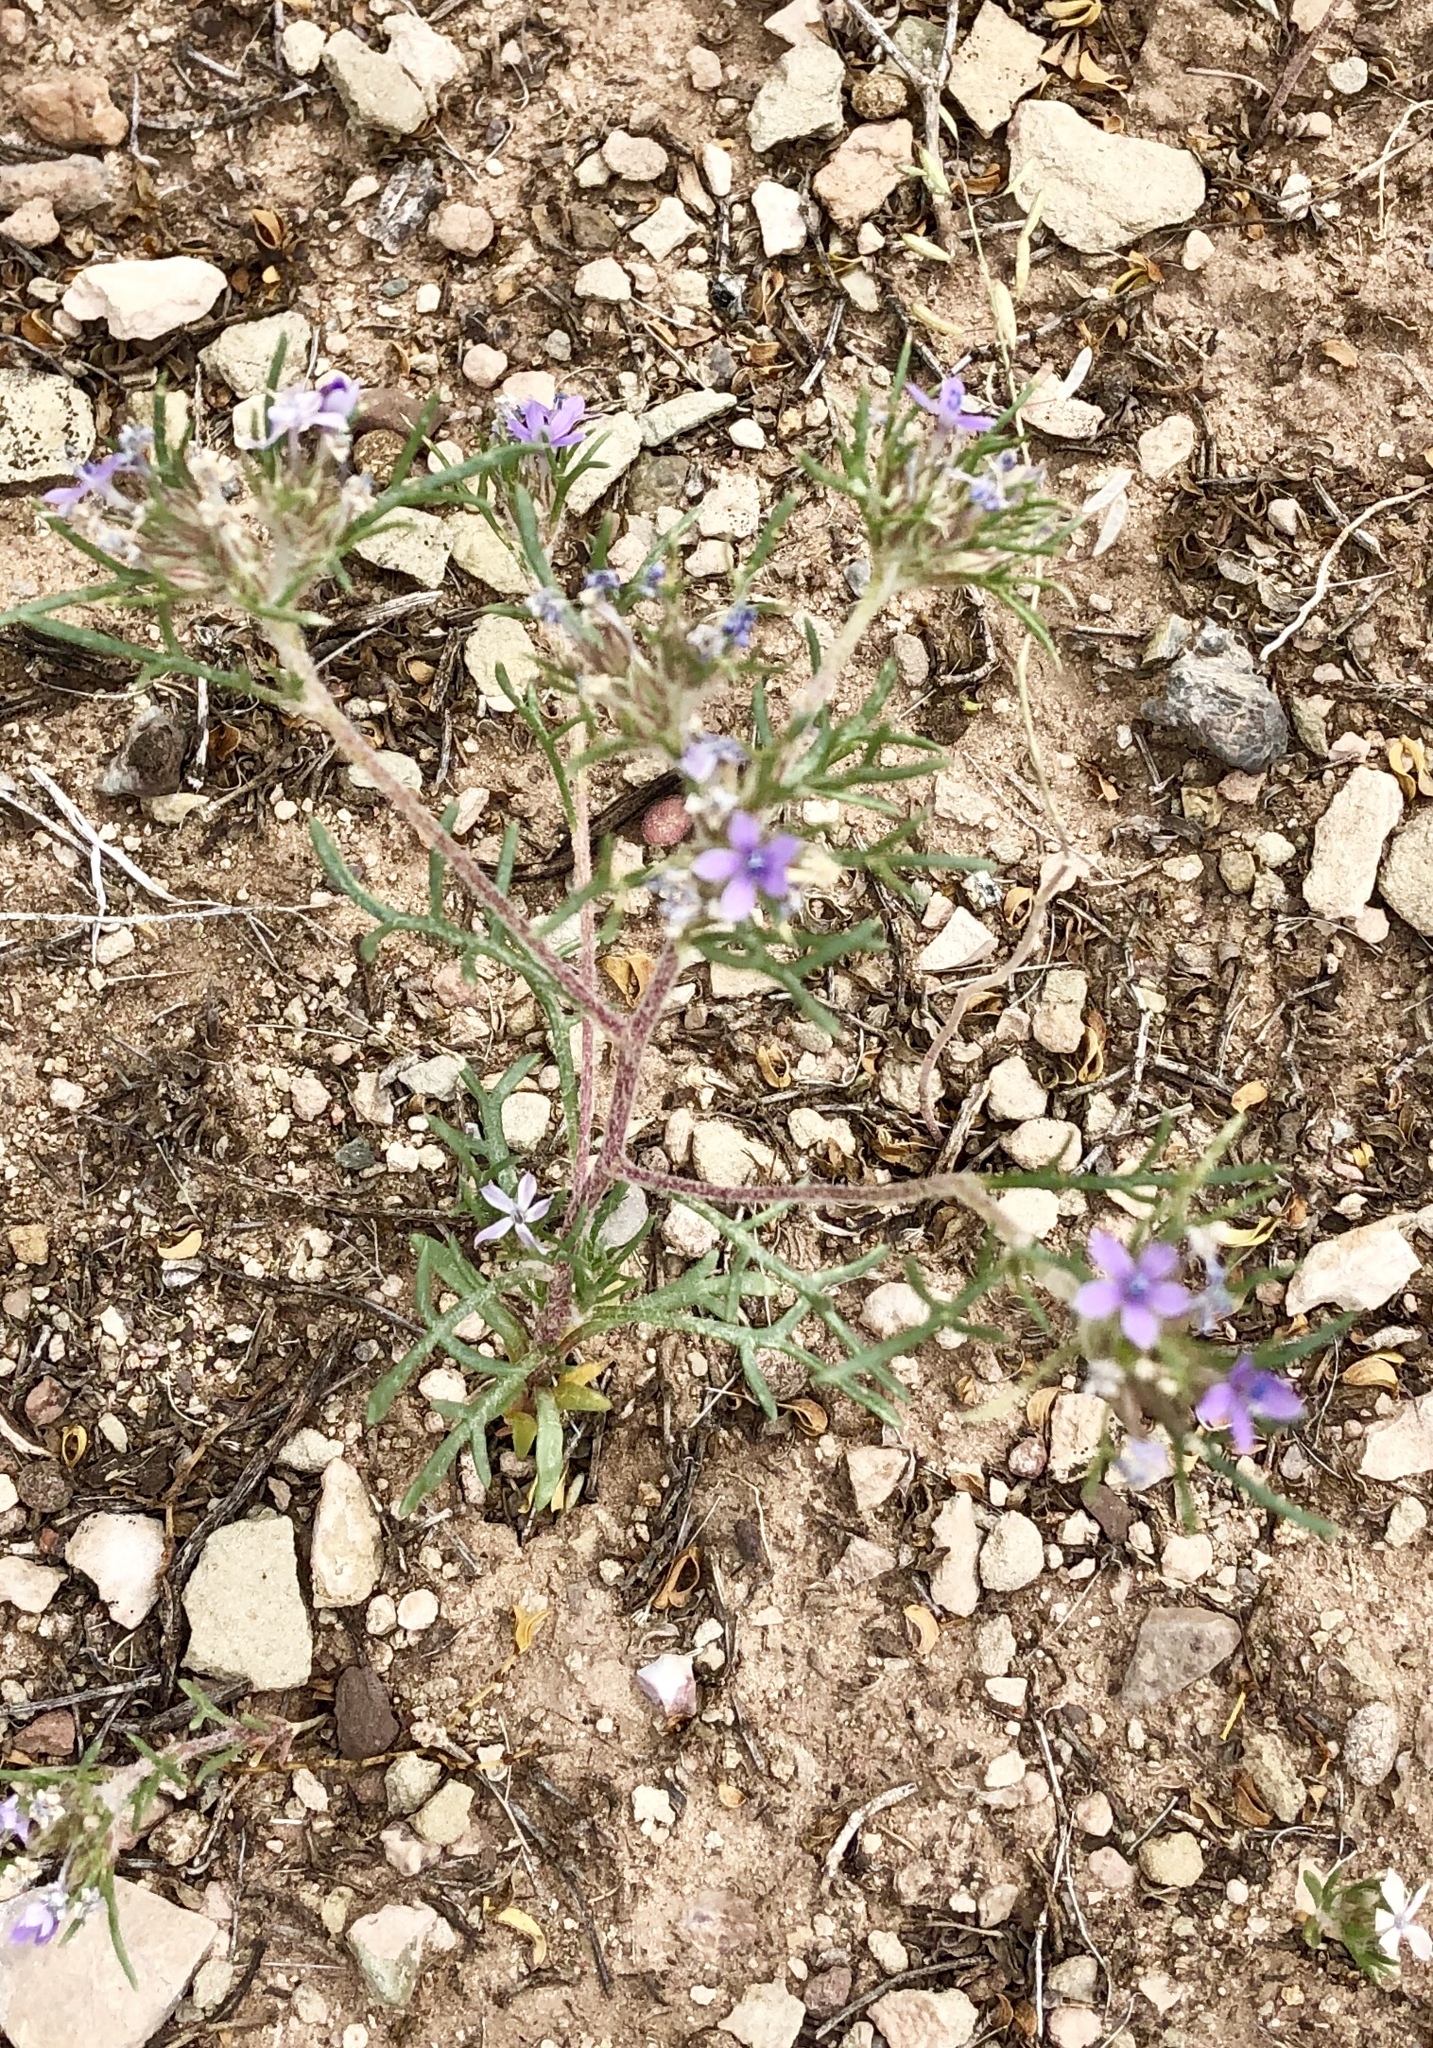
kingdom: Plantae
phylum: Tracheophyta
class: Magnoliopsida
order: Ericales
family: Polemoniaceae
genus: Ipomopsis
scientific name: Ipomopsis pumila
